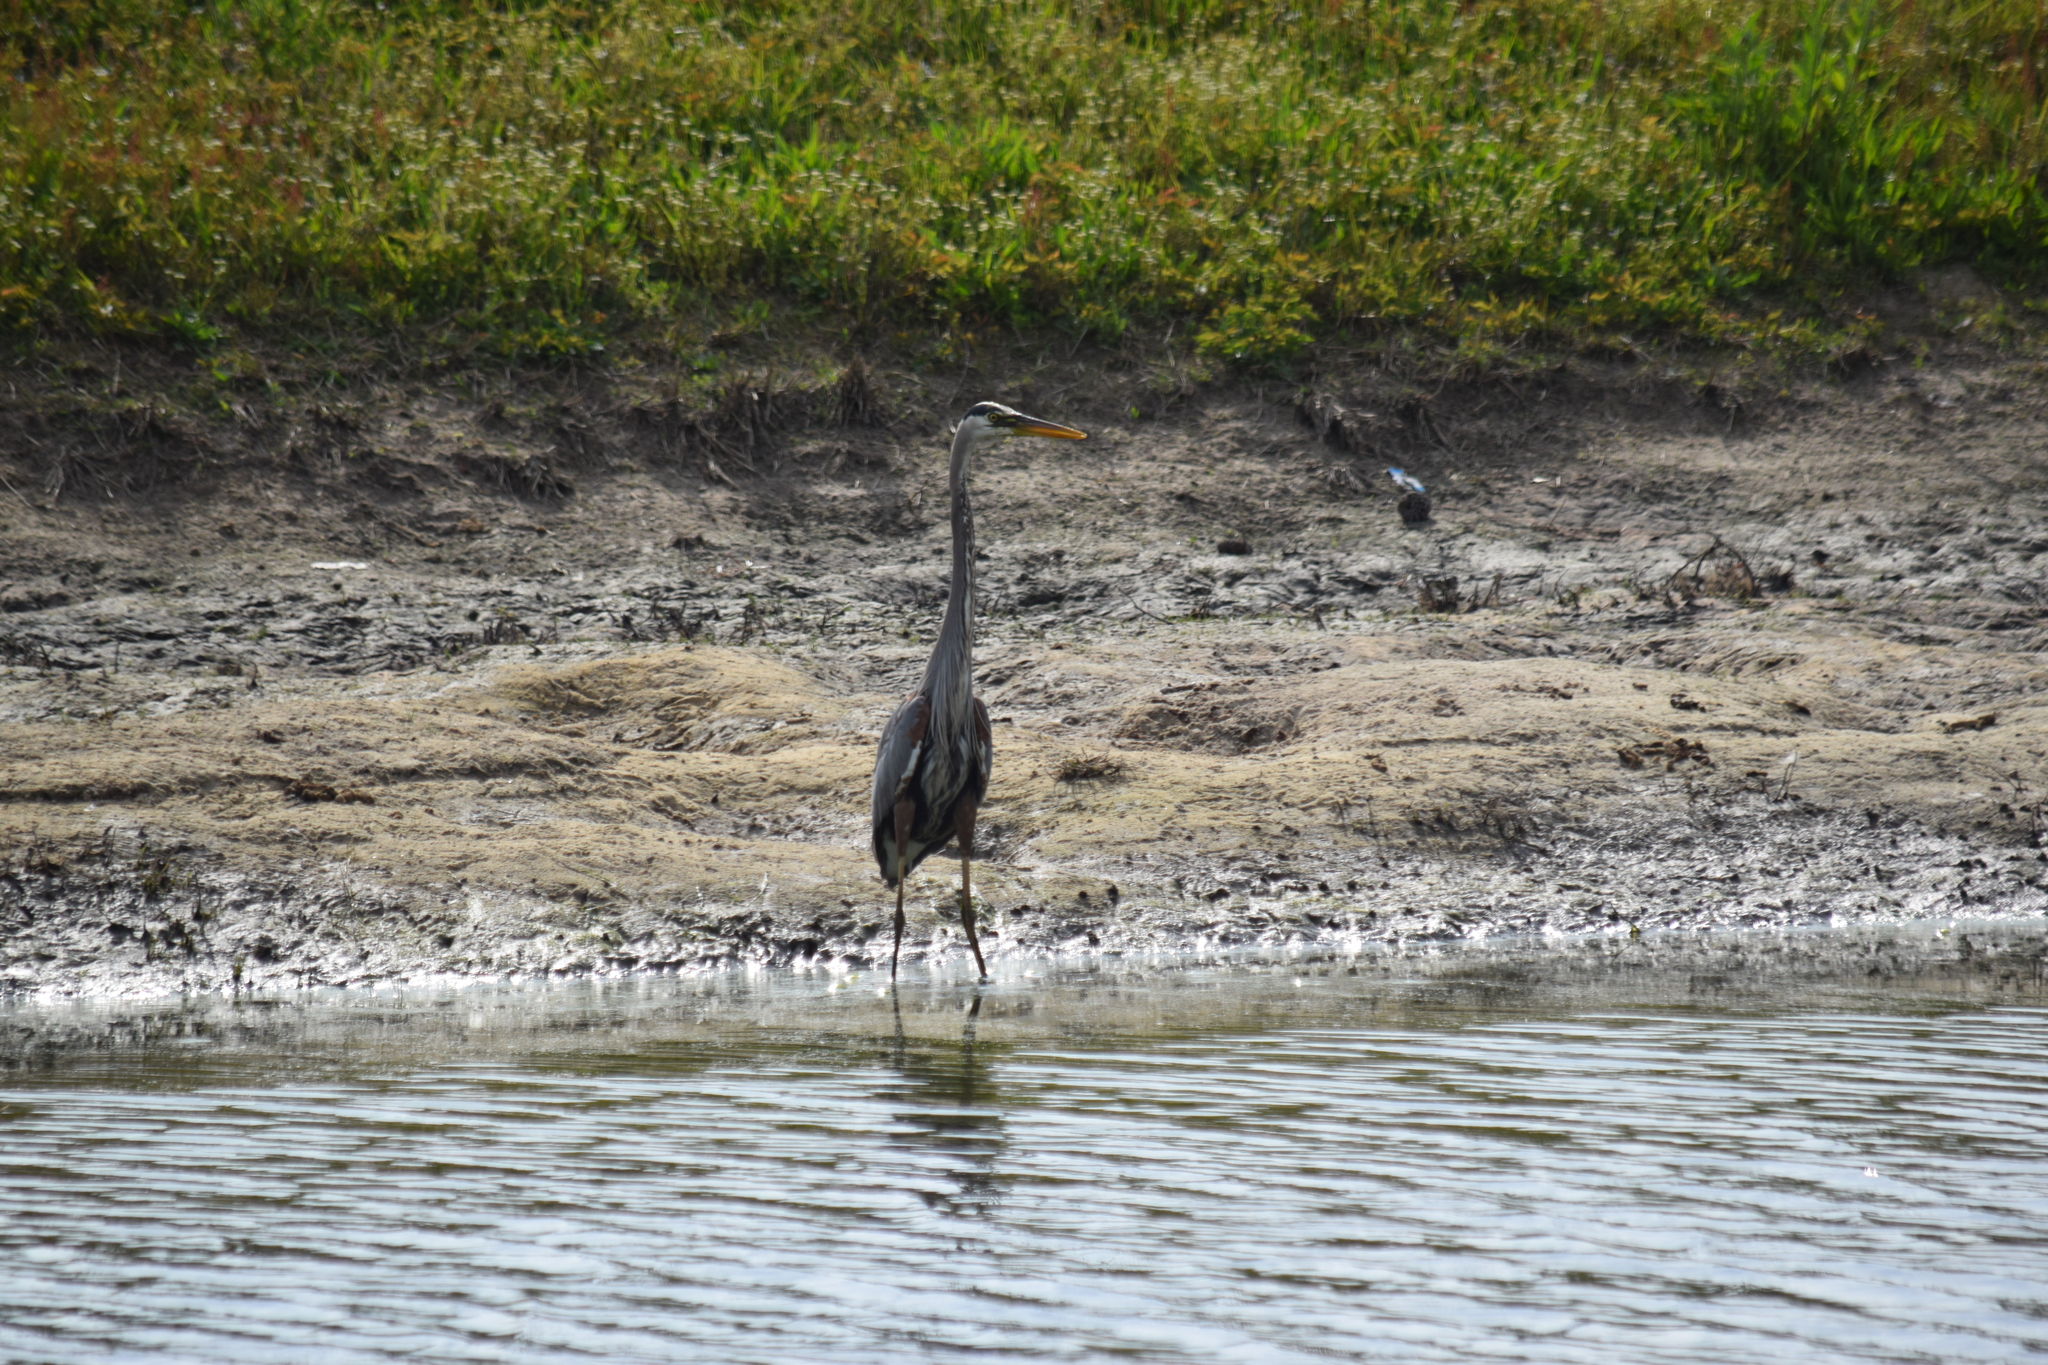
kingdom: Animalia
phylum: Chordata
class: Aves
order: Pelecaniformes
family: Ardeidae
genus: Ardea
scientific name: Ardea herodias
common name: Great blue heron
